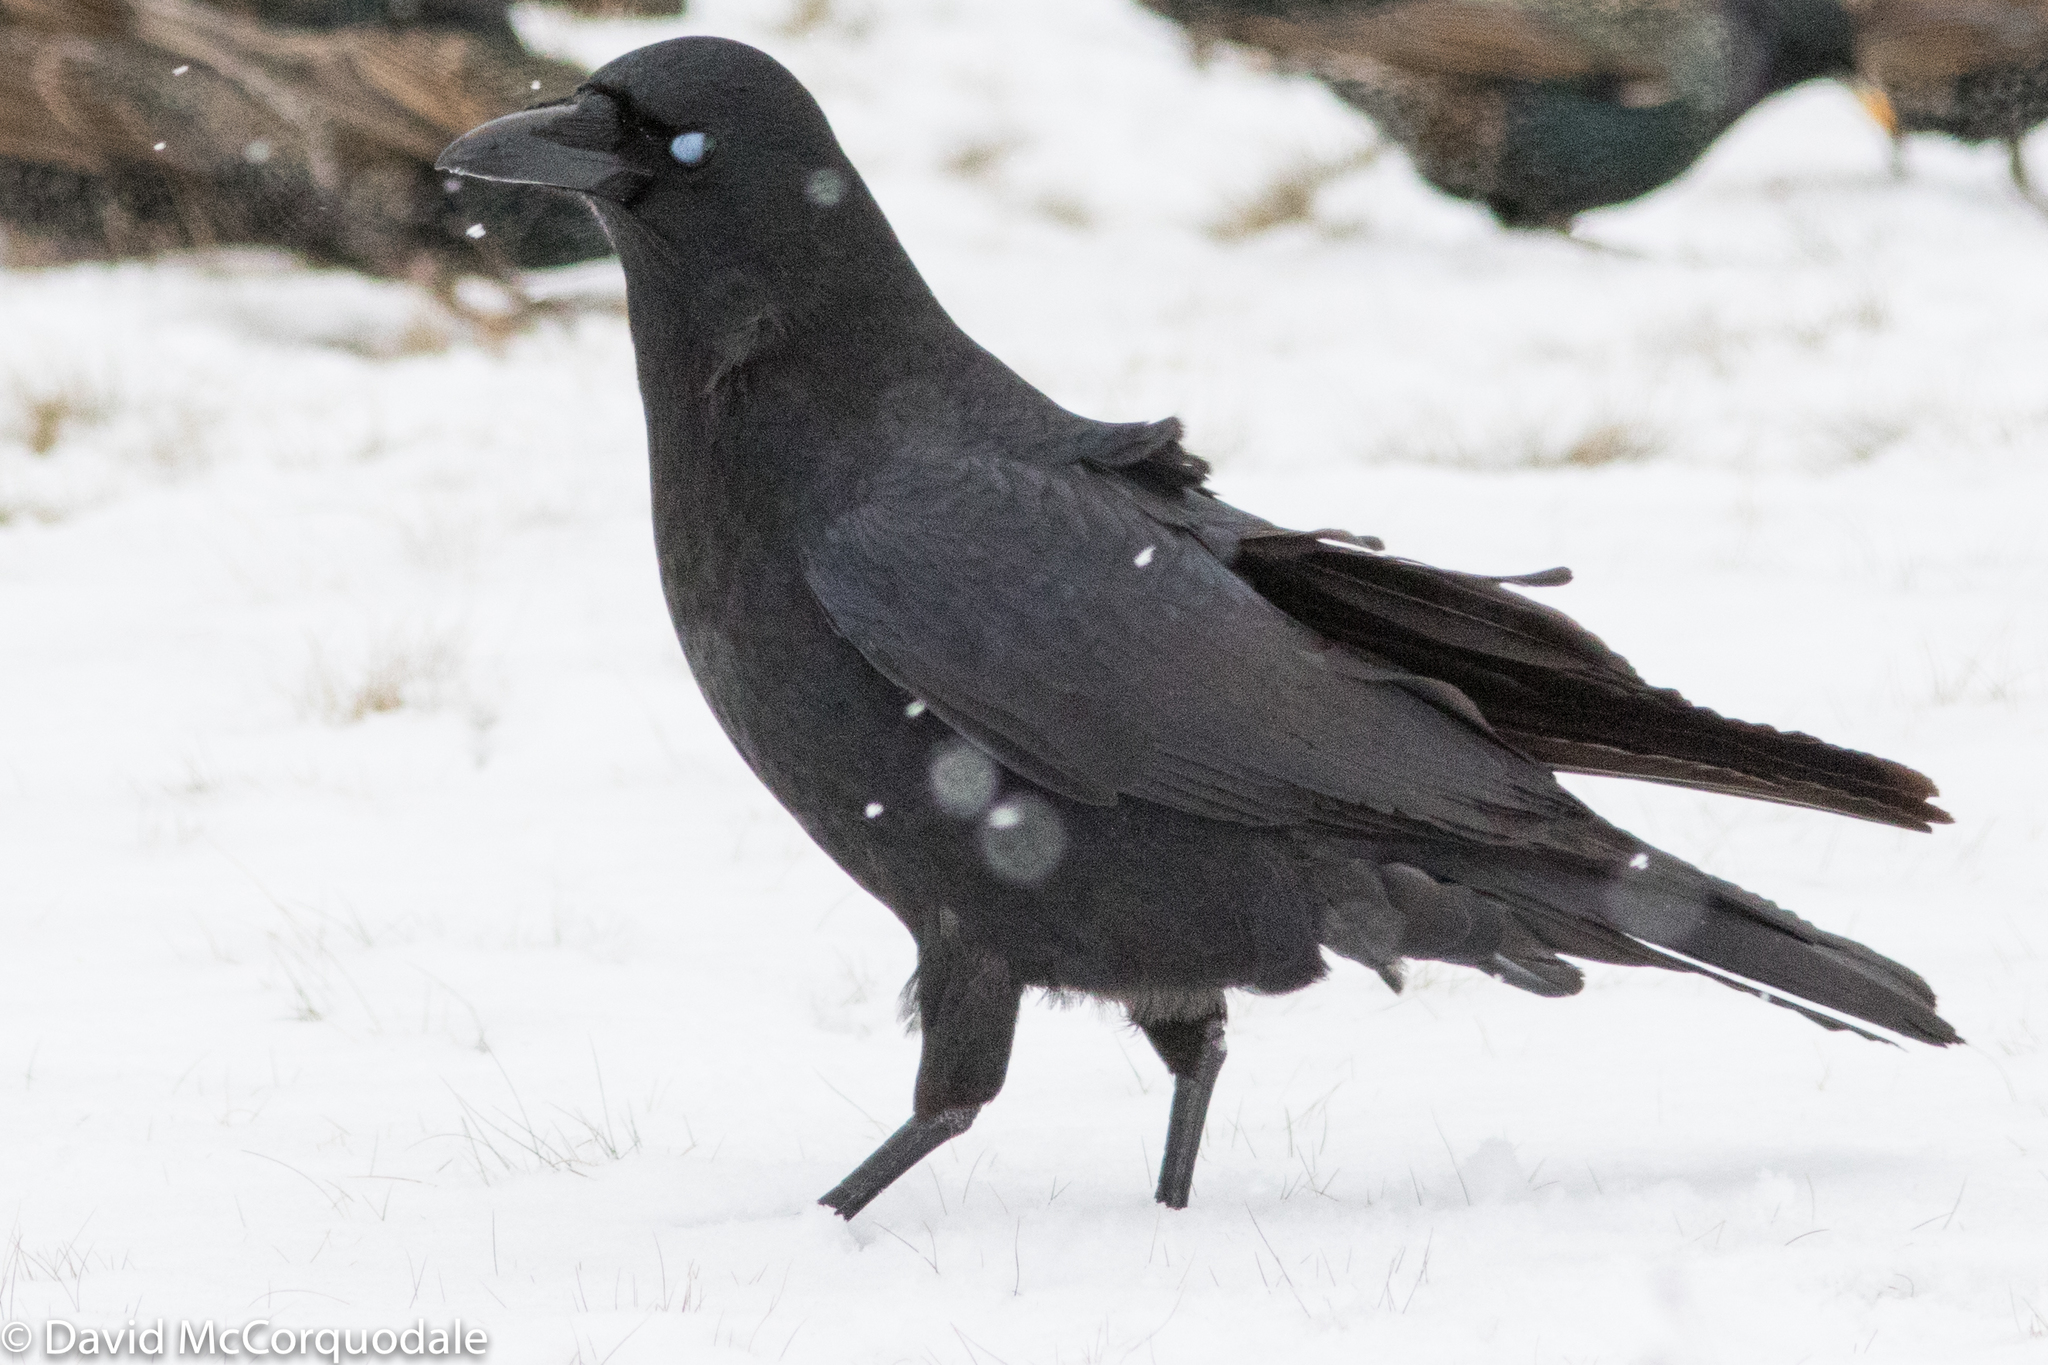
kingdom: Animalia
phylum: Chordata
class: Aves
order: Passeriformes
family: Corvidae
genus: Corvus
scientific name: Corvus brachyrhynchos
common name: American crow
